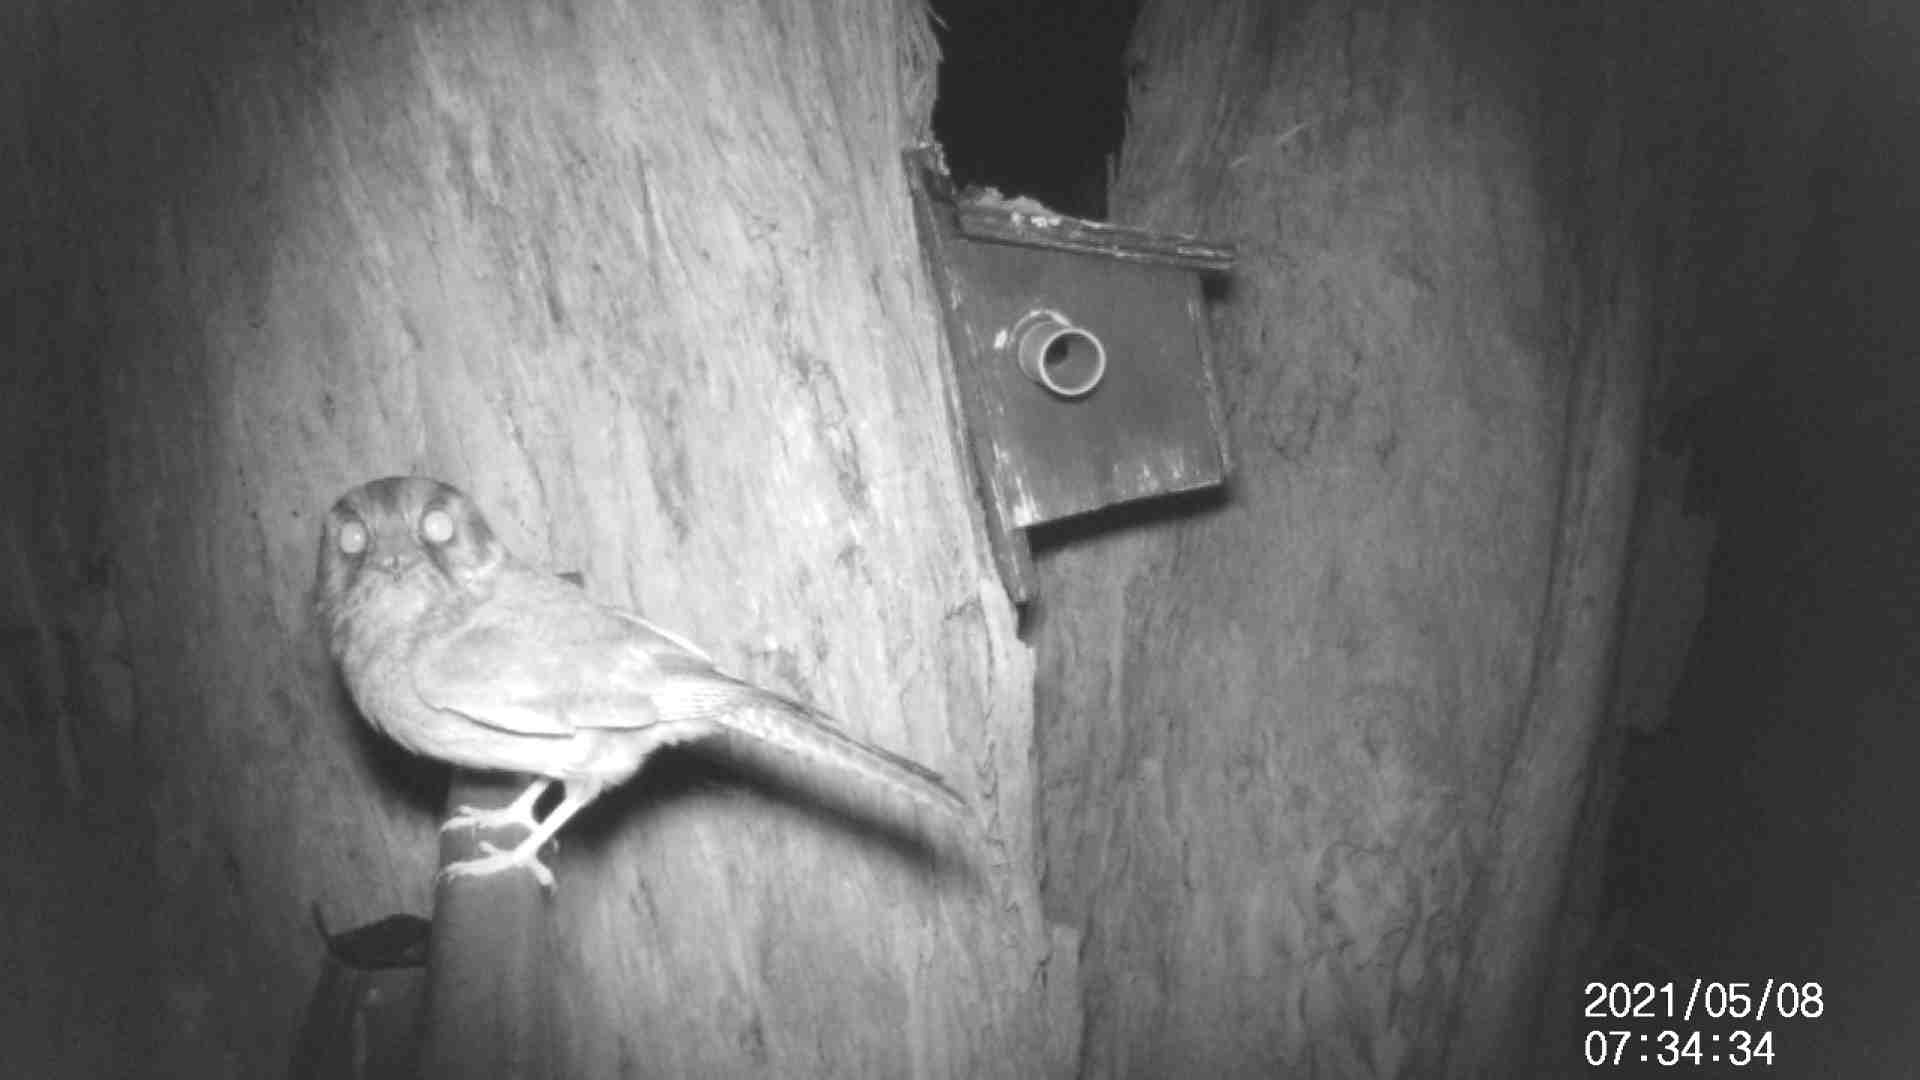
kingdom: Animalia
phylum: Chordata
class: Aves
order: Apodiformes
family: Aegothelidae
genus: Aegotheles
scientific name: Aegotheles cristatus
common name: Australian owlet-nightjar
